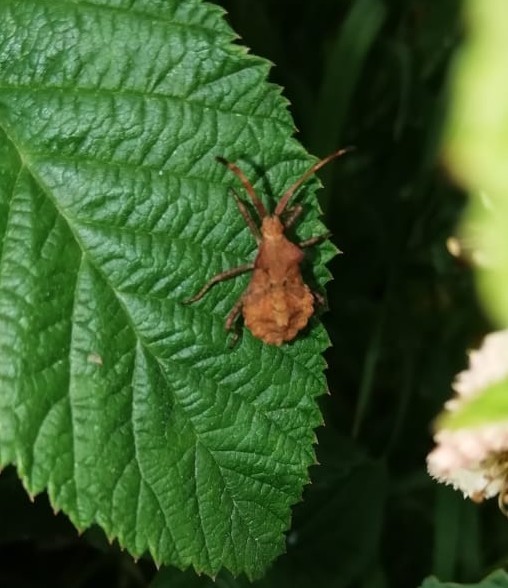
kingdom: Animalia
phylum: Arthropoda
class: Insecta
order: Hemiptera
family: Coreidae
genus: Coreus
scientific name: Coreus marginatus
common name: Dock bug
